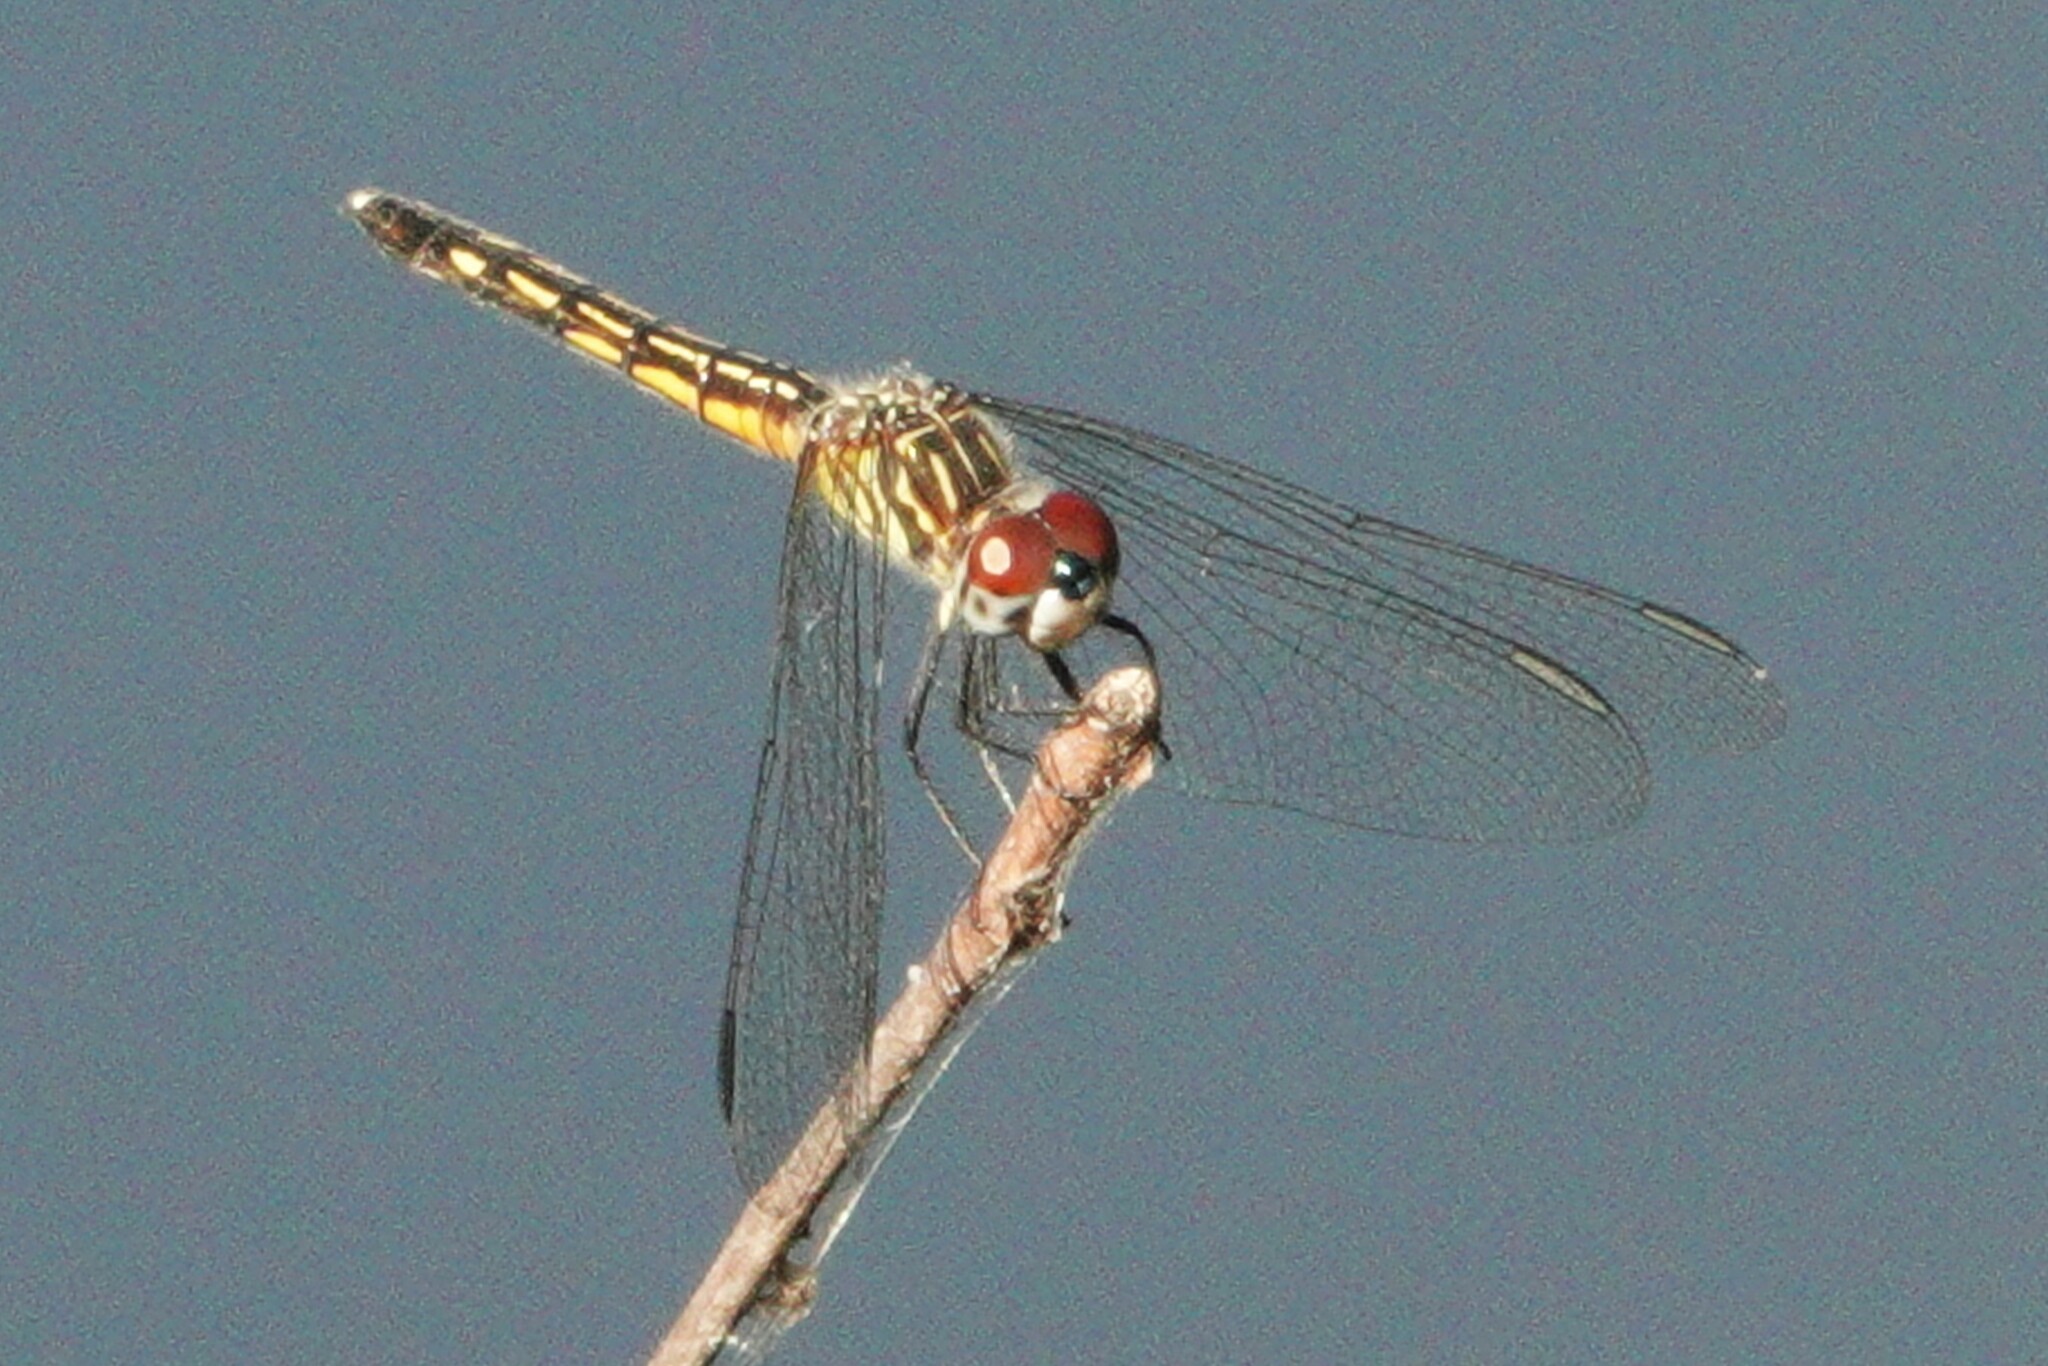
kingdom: Animalia
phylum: Arthropoda
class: Insecta
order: Odonata
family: Libellulidae
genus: Pachydiplax
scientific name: Pachydiplax longipennis
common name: Blue dasher
